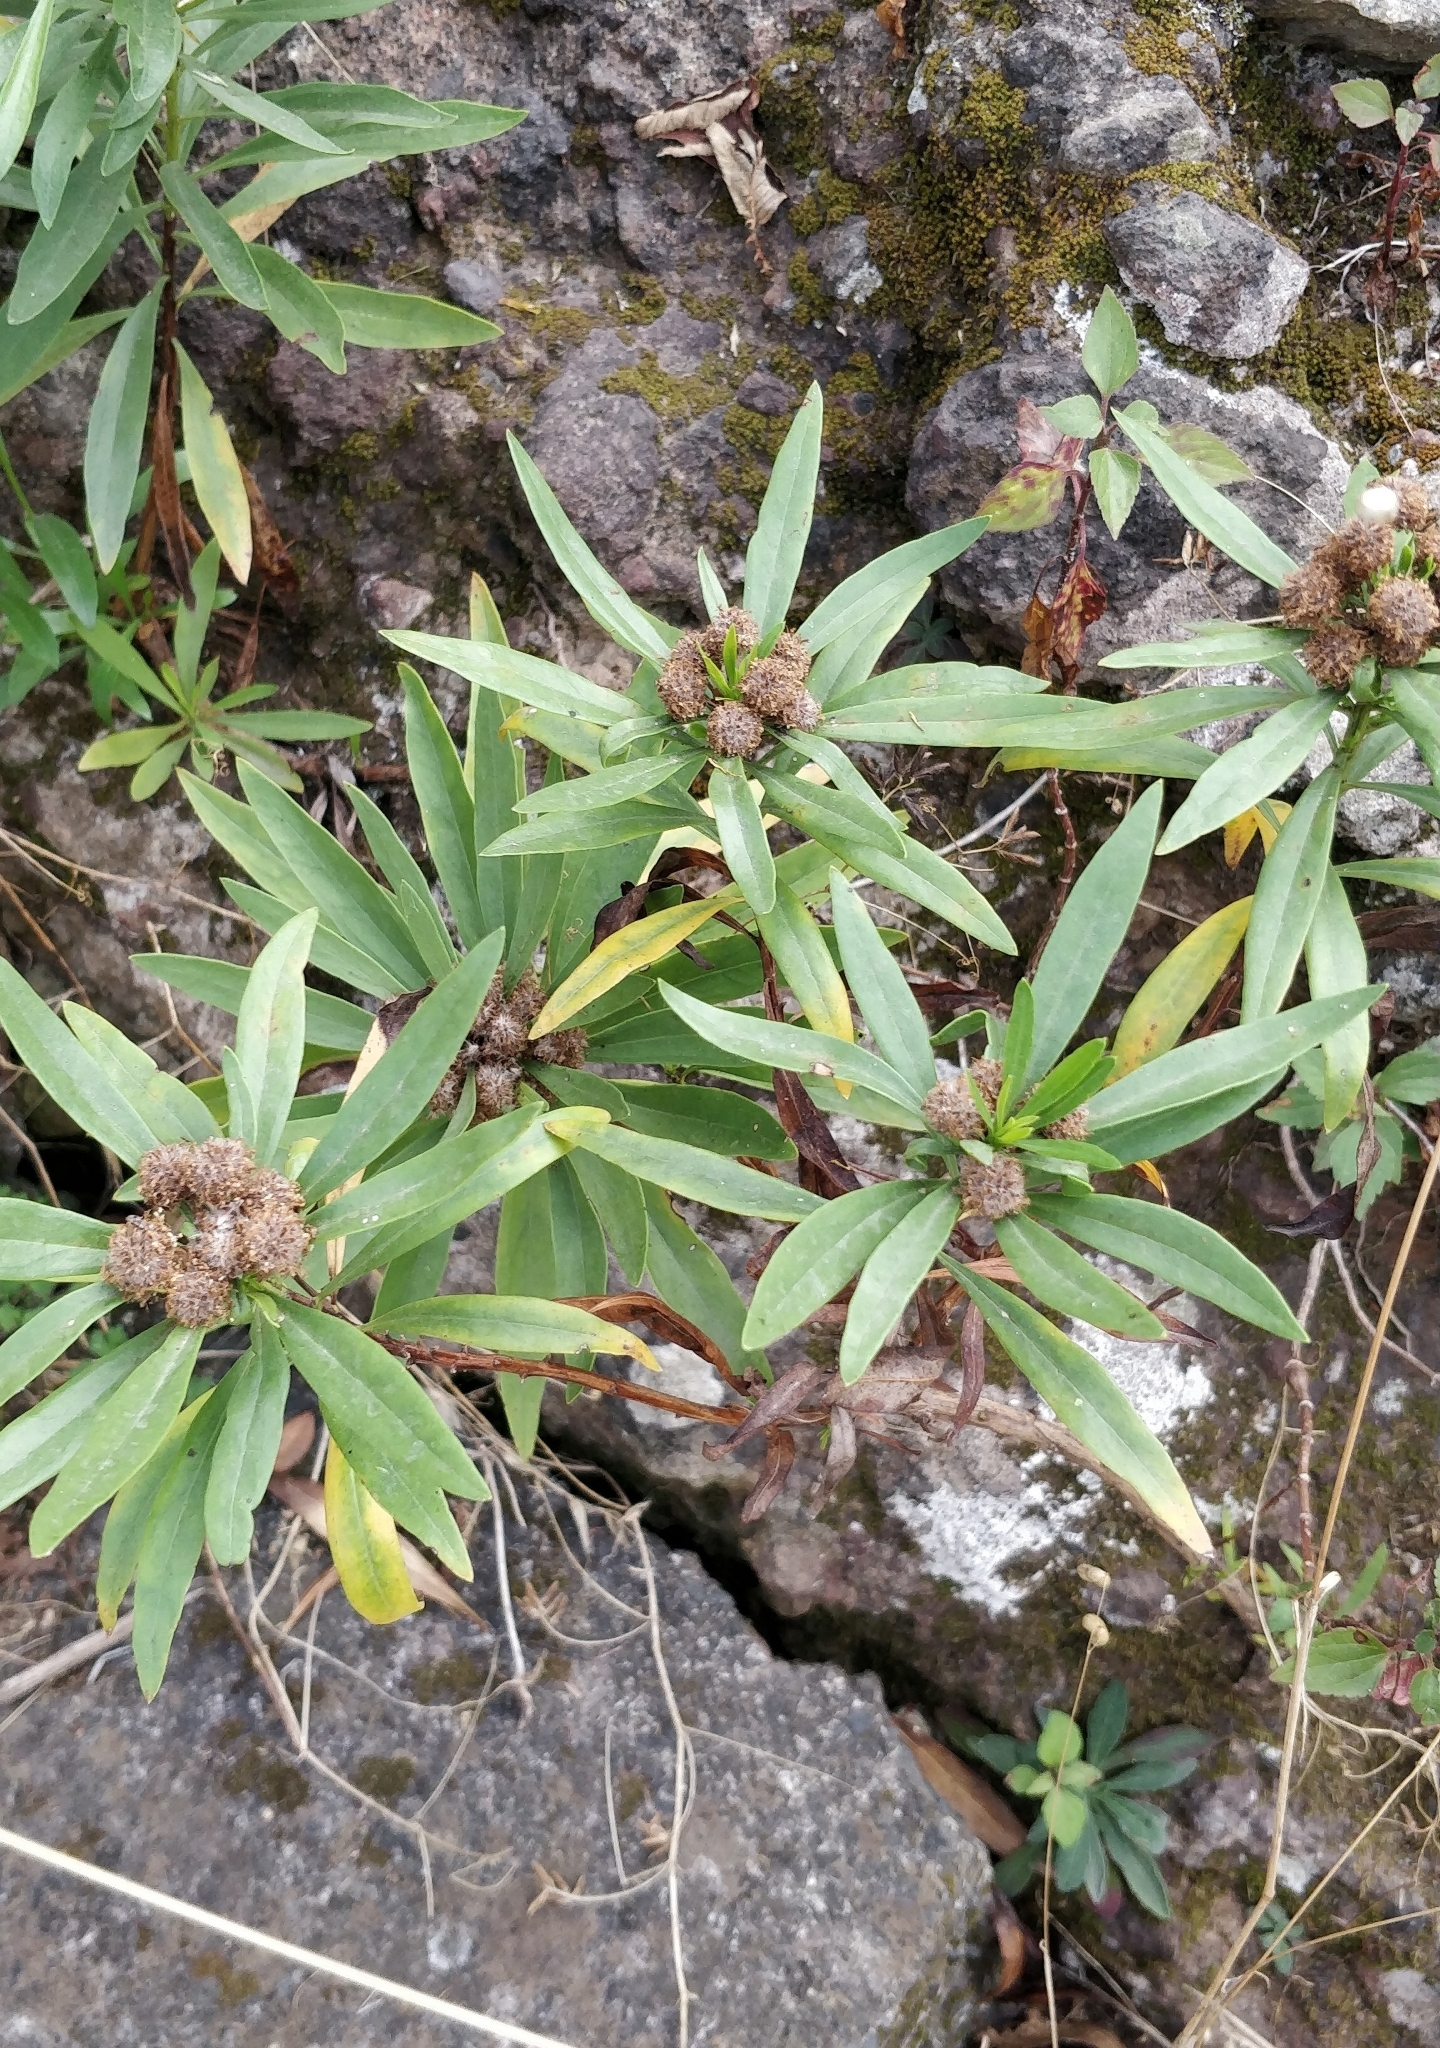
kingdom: Plantae
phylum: Tracheophyta
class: Magnoliopsida
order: Lamiales
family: Plantaginaceae
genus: Globularia
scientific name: Globularia salicina
